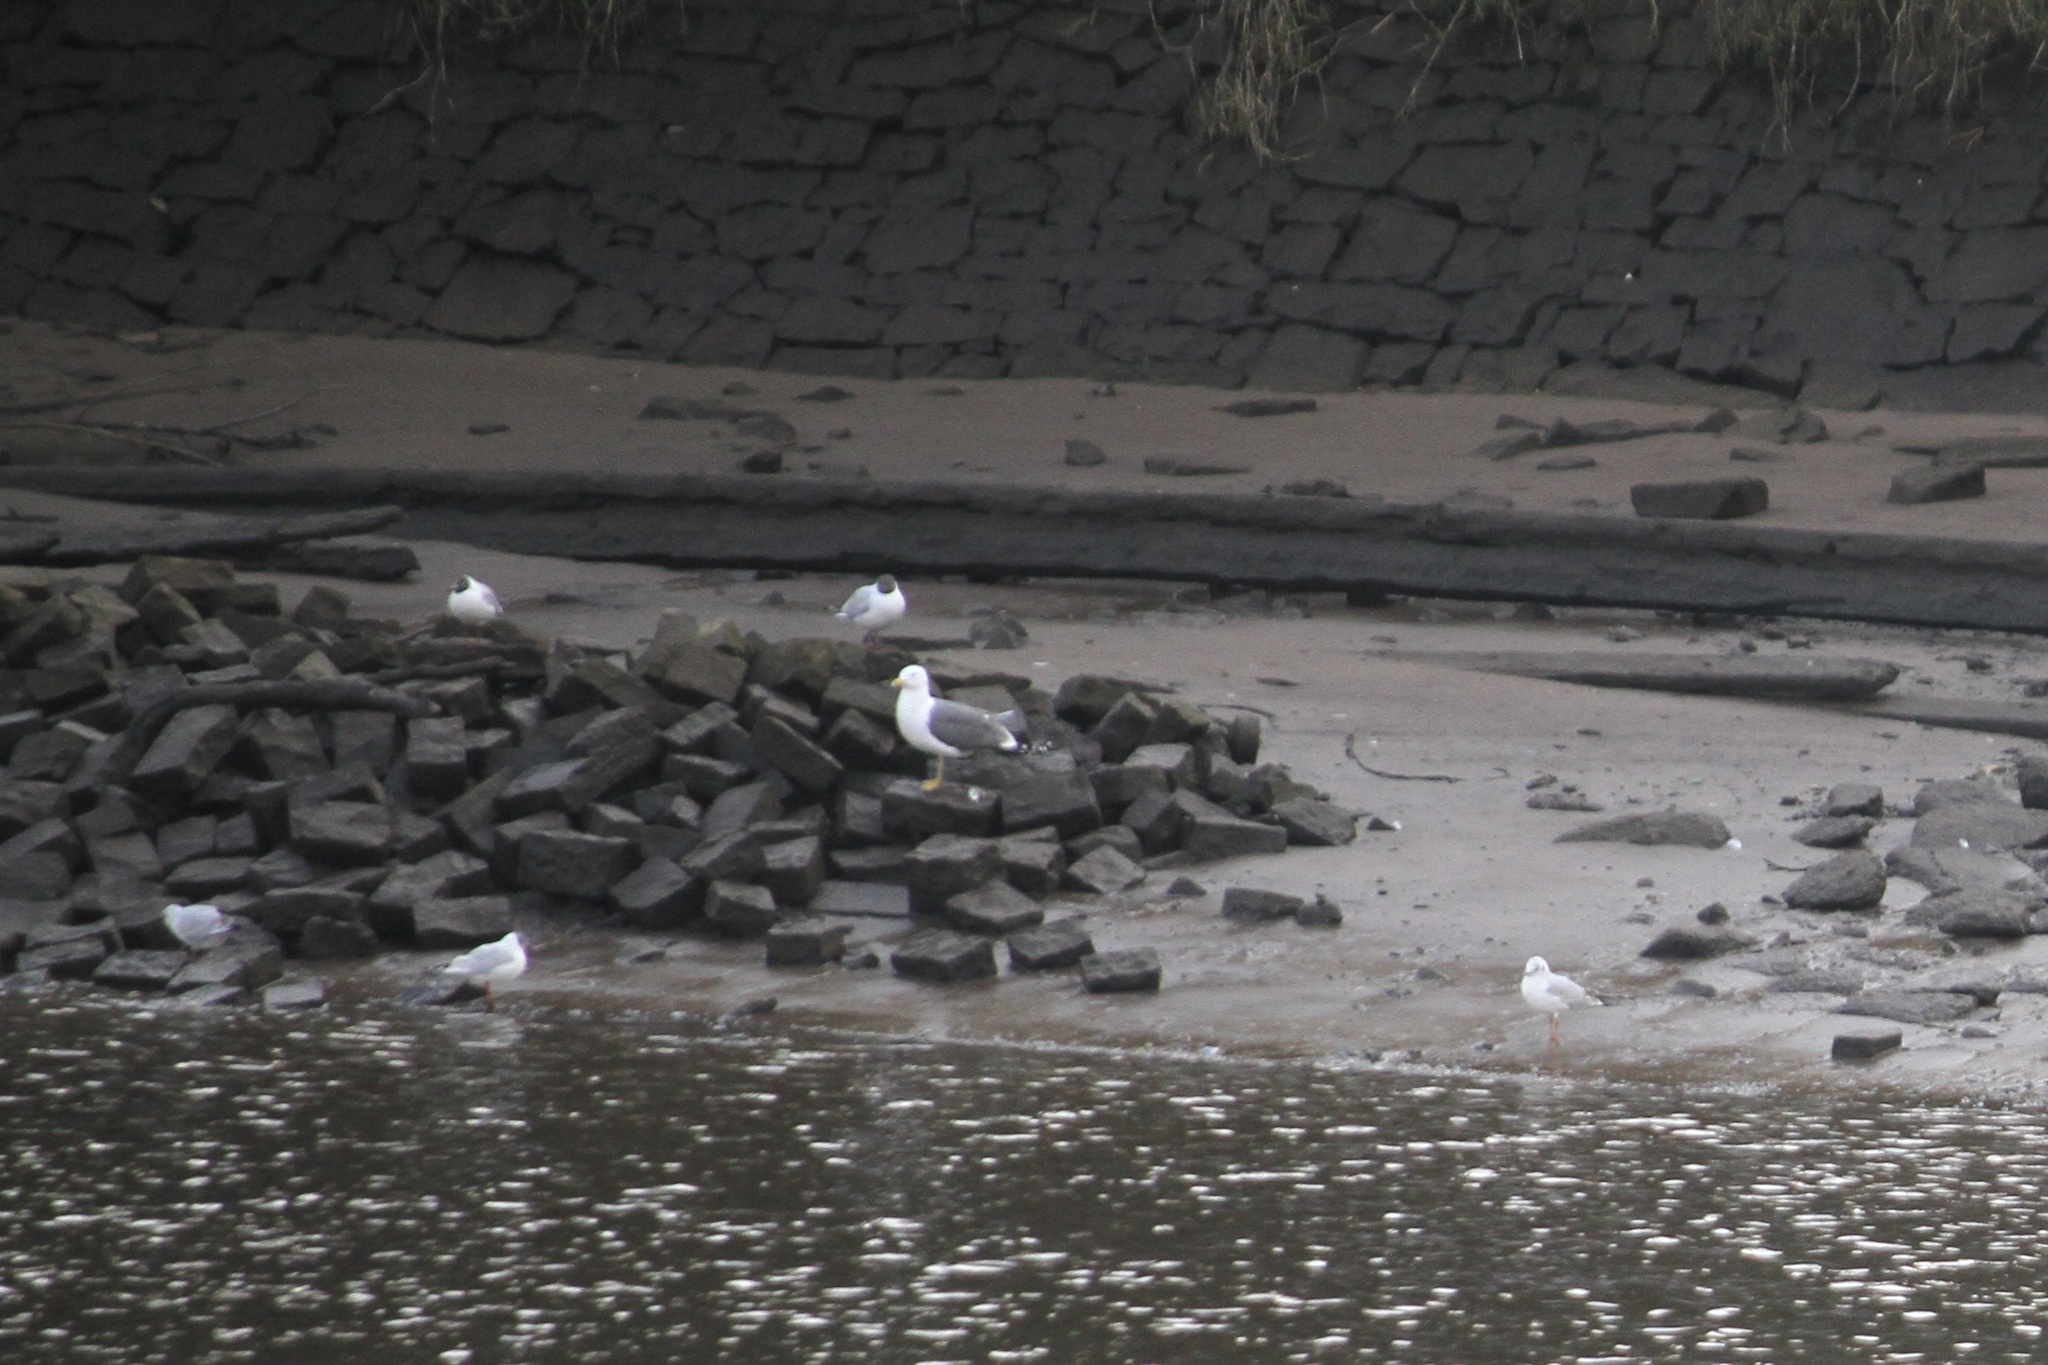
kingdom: Animalia
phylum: Chordata
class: Aves
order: Charadriiformes
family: Laridae
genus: Chroicocephalus
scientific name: Chroicocephalus ridibundus
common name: Black-headed gull
